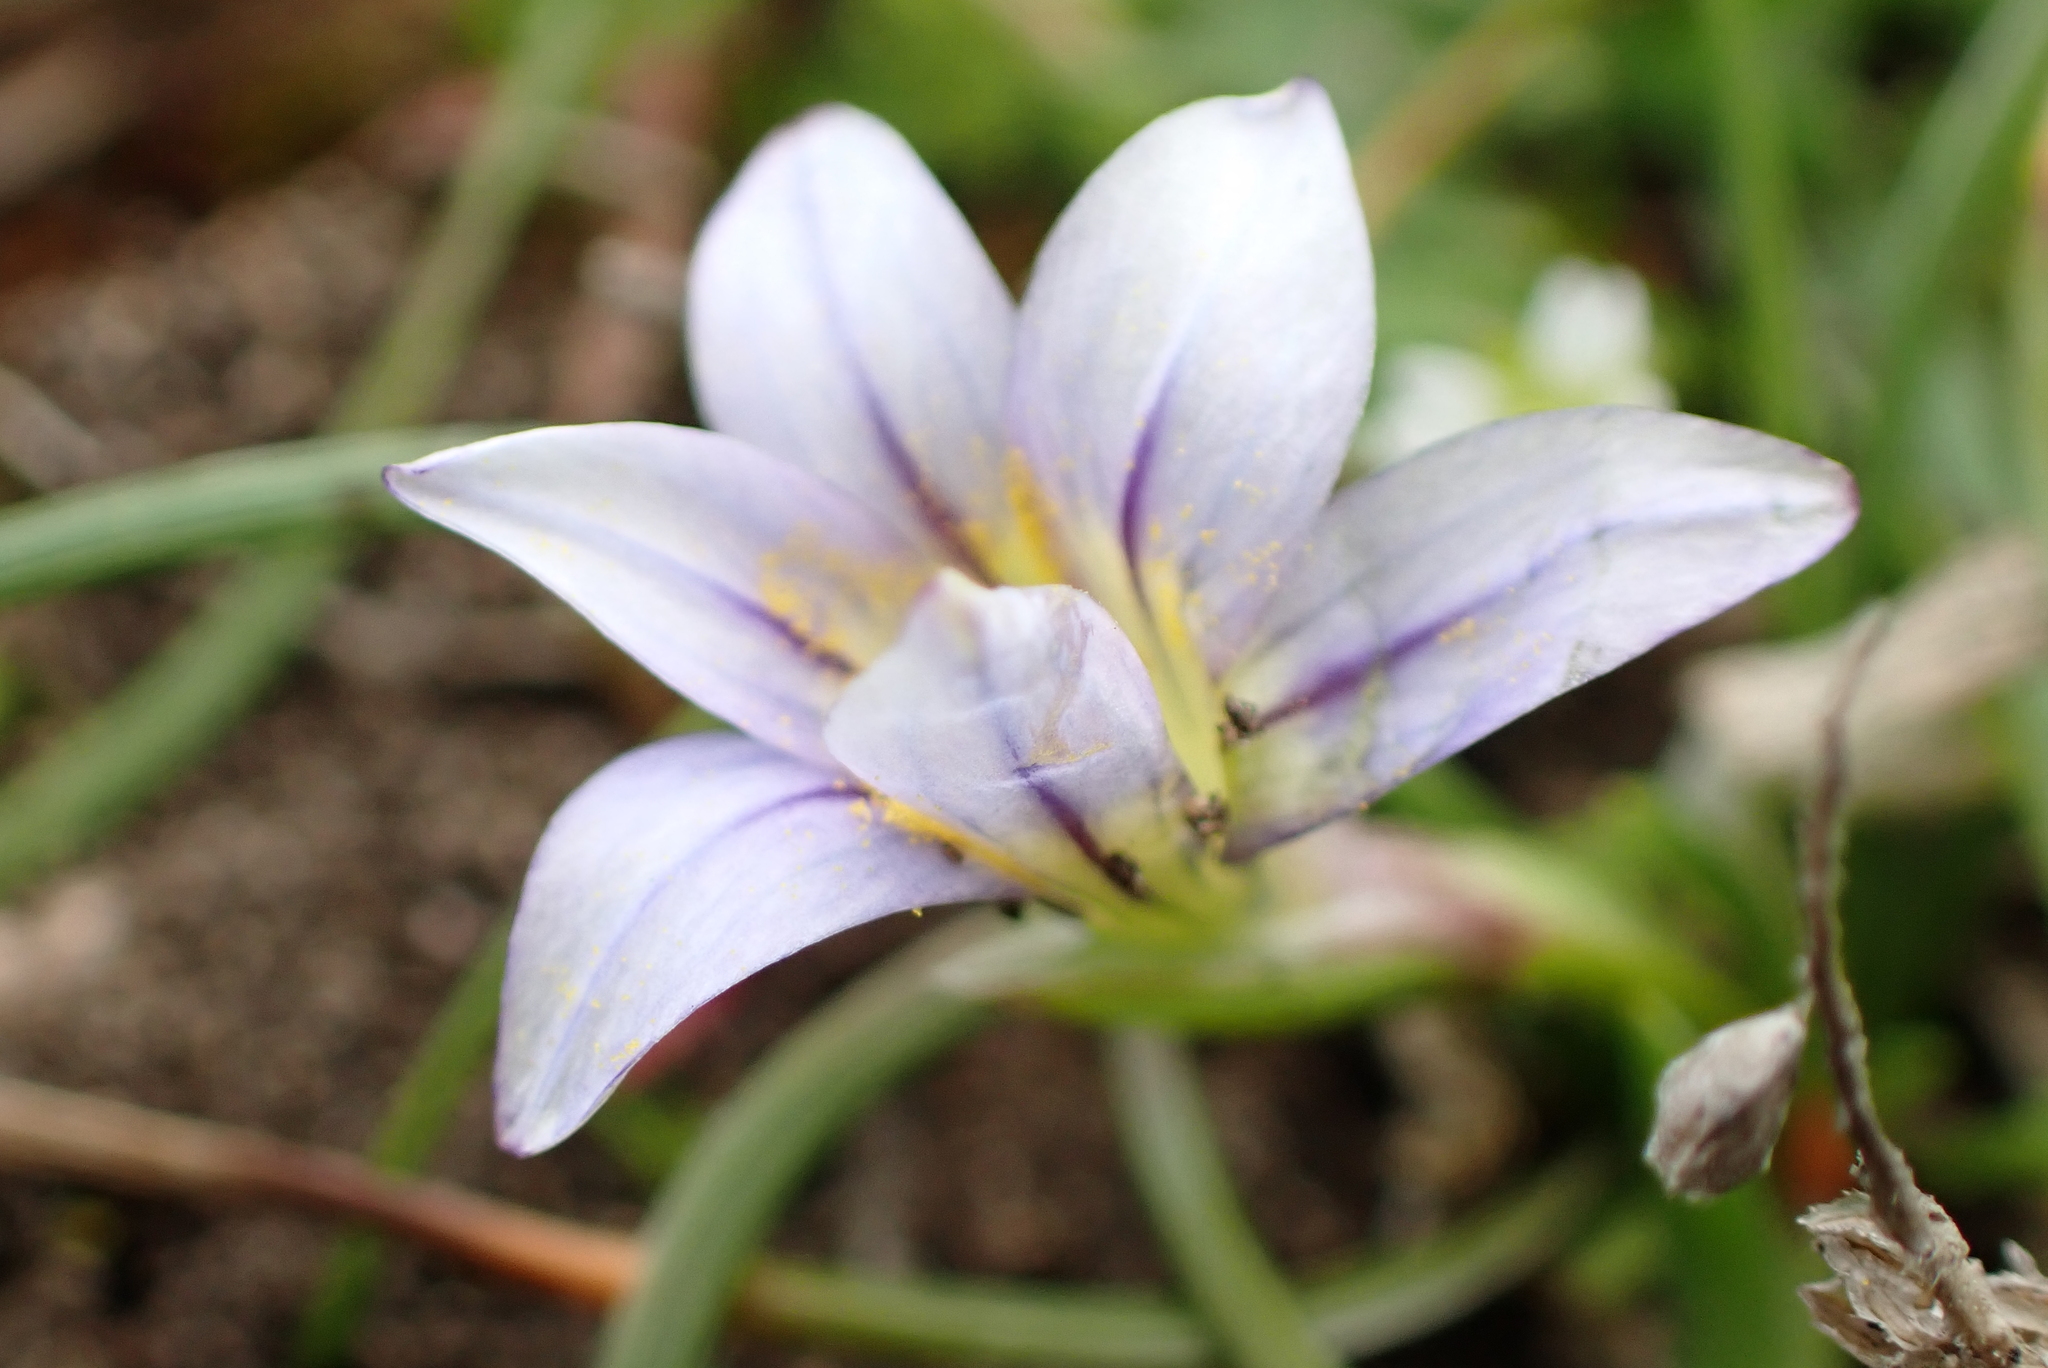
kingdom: Plantae
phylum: Tracheophyta
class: Liliopsida
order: Asparagales
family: Iridaceae
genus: Romulea
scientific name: Romulea columnae
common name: Sand-crocus
